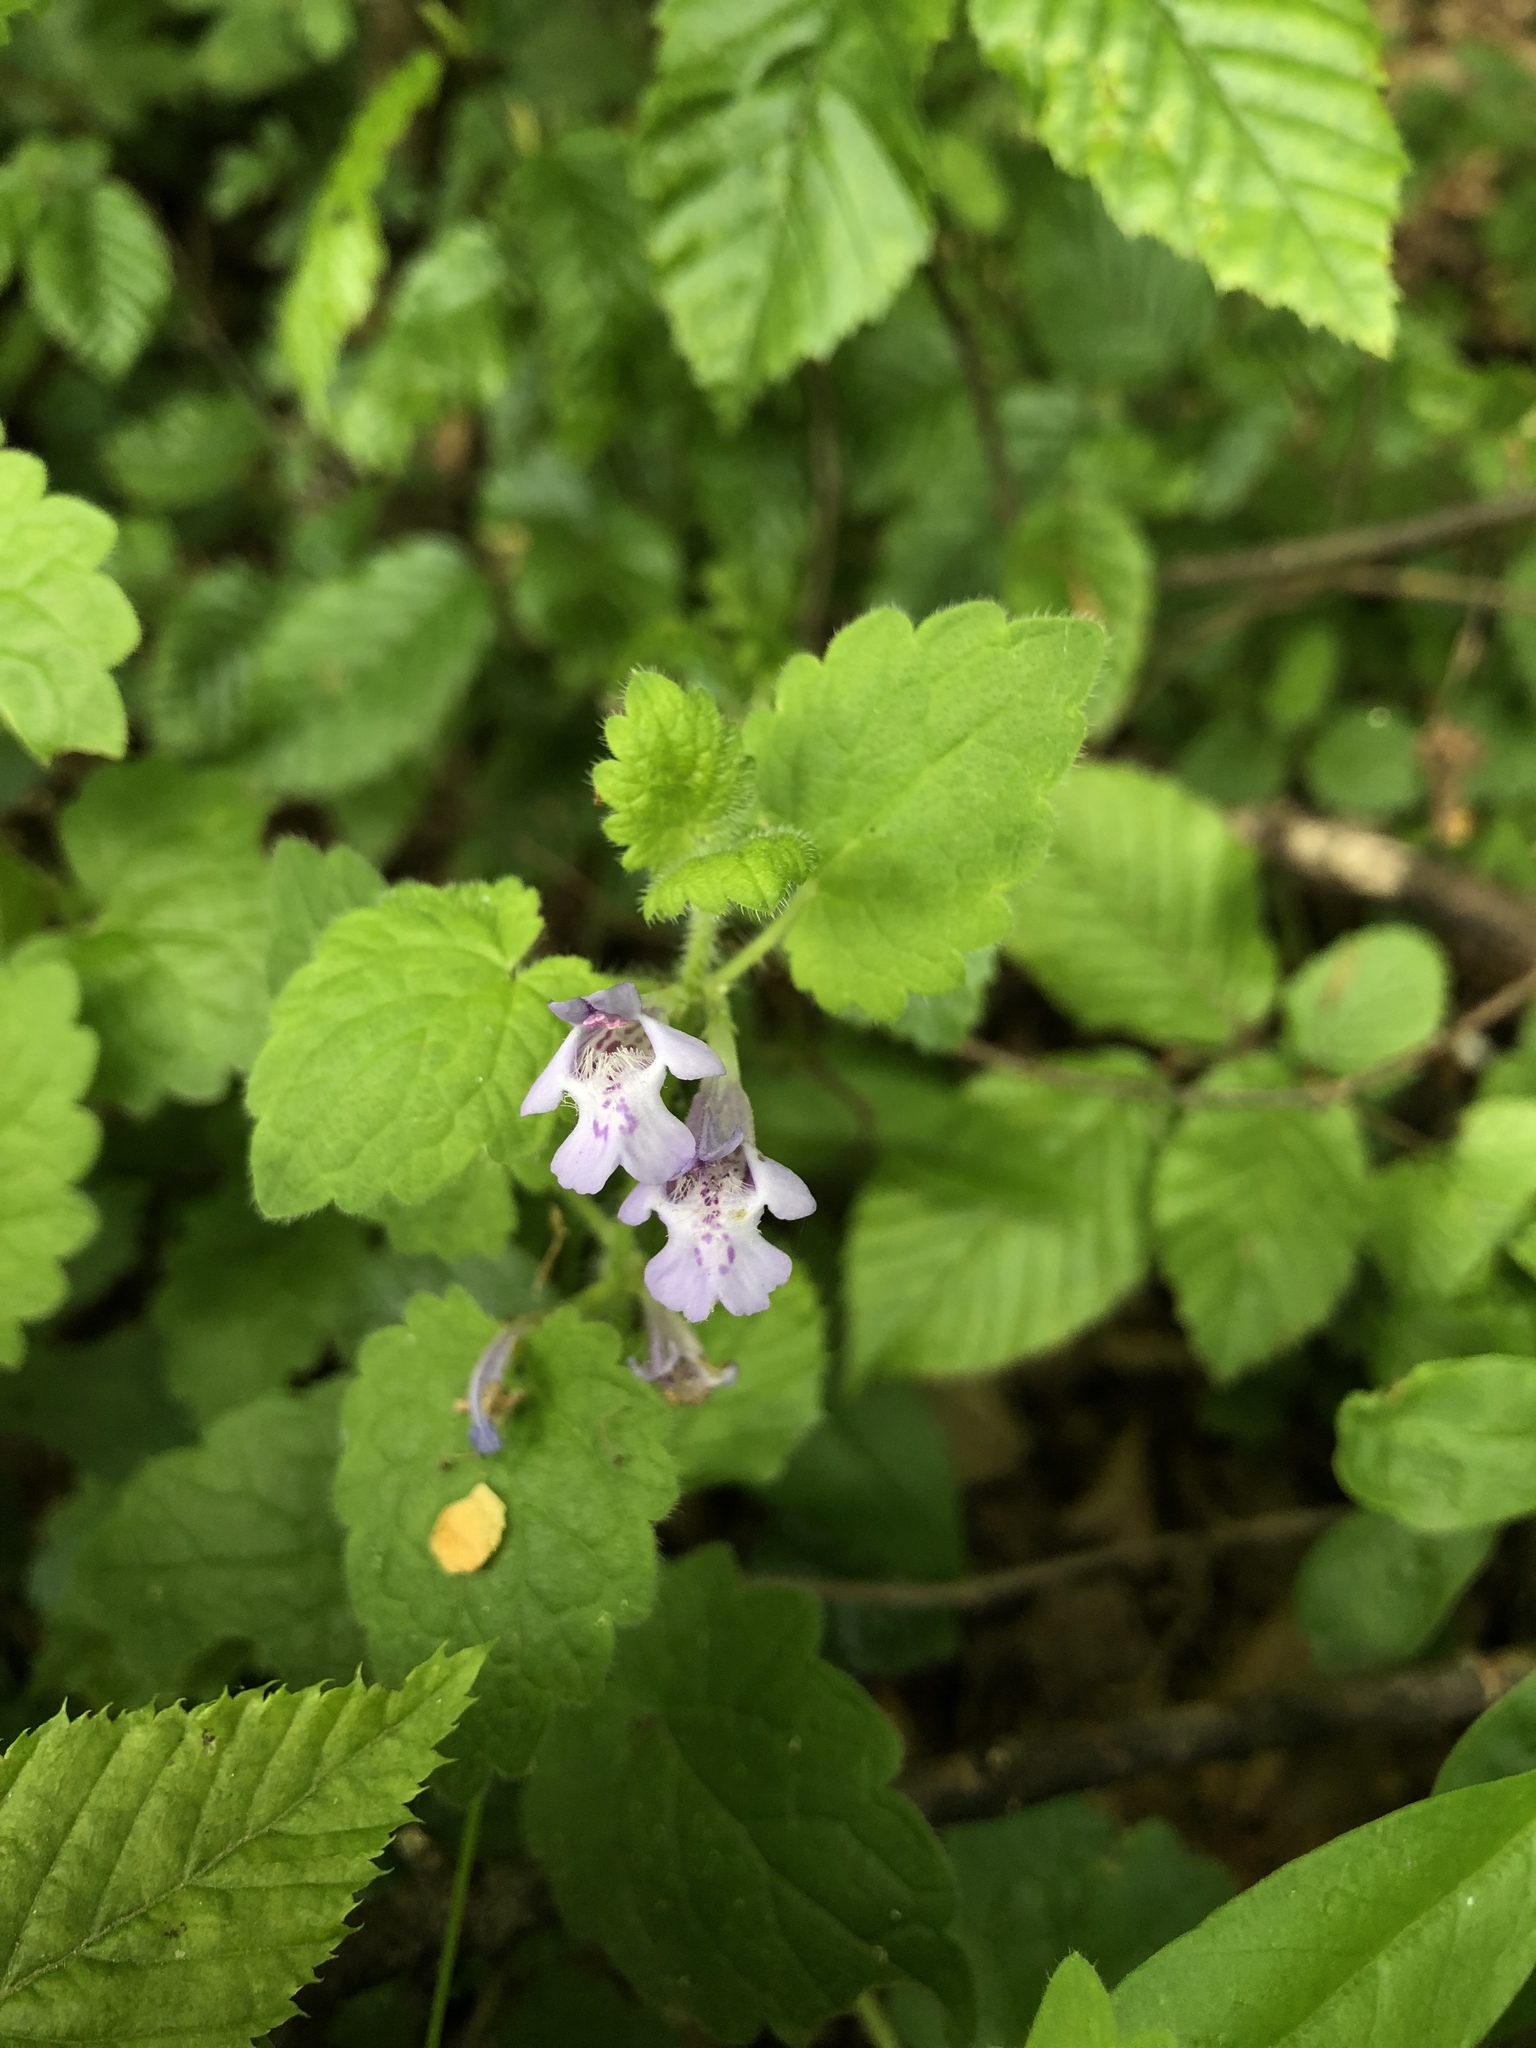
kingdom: Plantae
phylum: Tracheophyta
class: Magnoliopsida
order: Lamiales
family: Lamiaceae
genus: Glechoma
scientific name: Glechoma hirsuta
